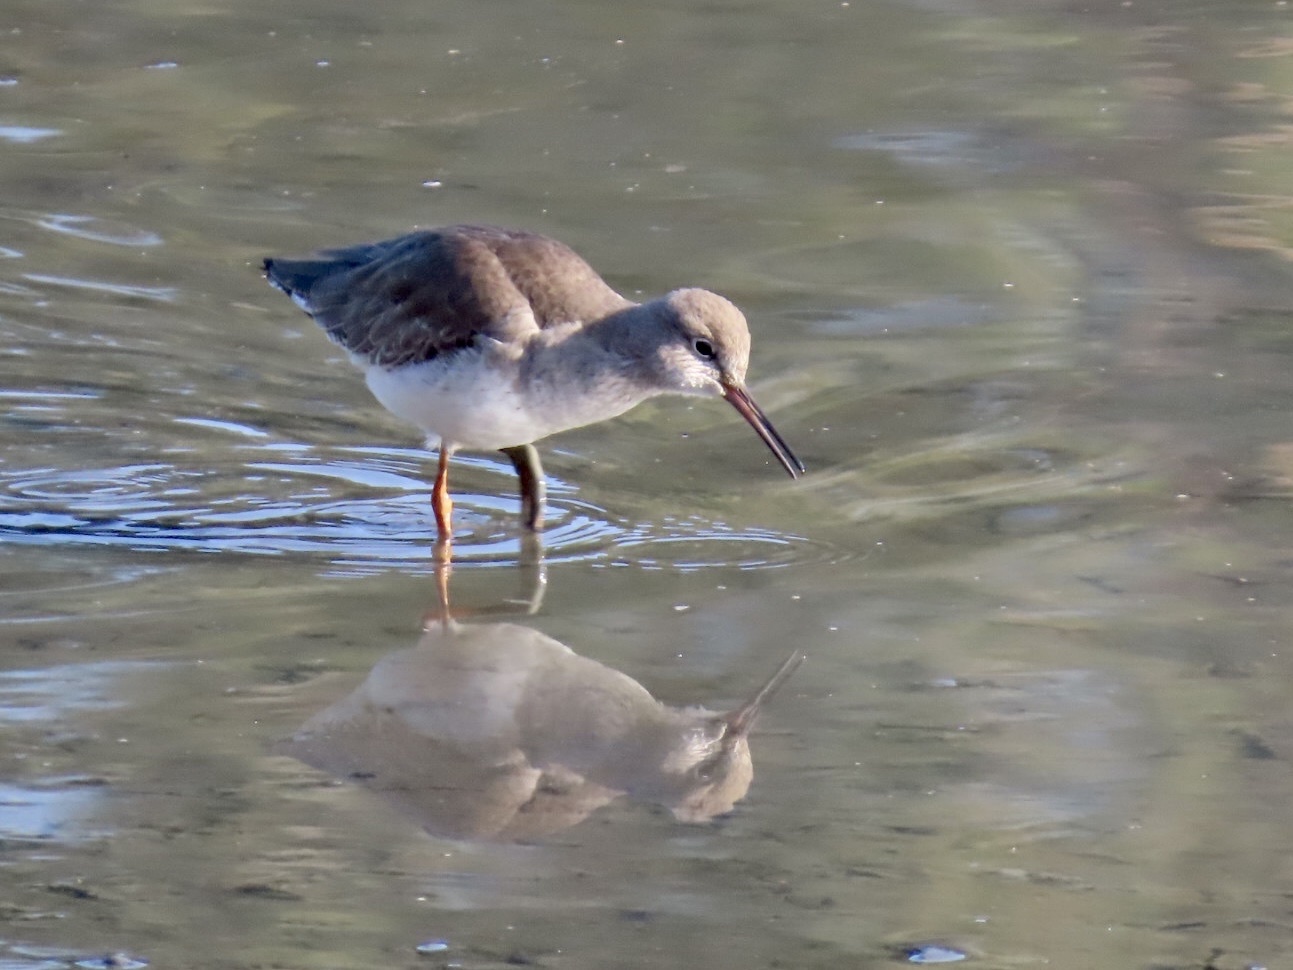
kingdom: Animalia
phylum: Chordata
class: Aves
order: Charadriiformes
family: Scolopacidae
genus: Tringa
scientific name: Tringa totanus
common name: Common redshank
